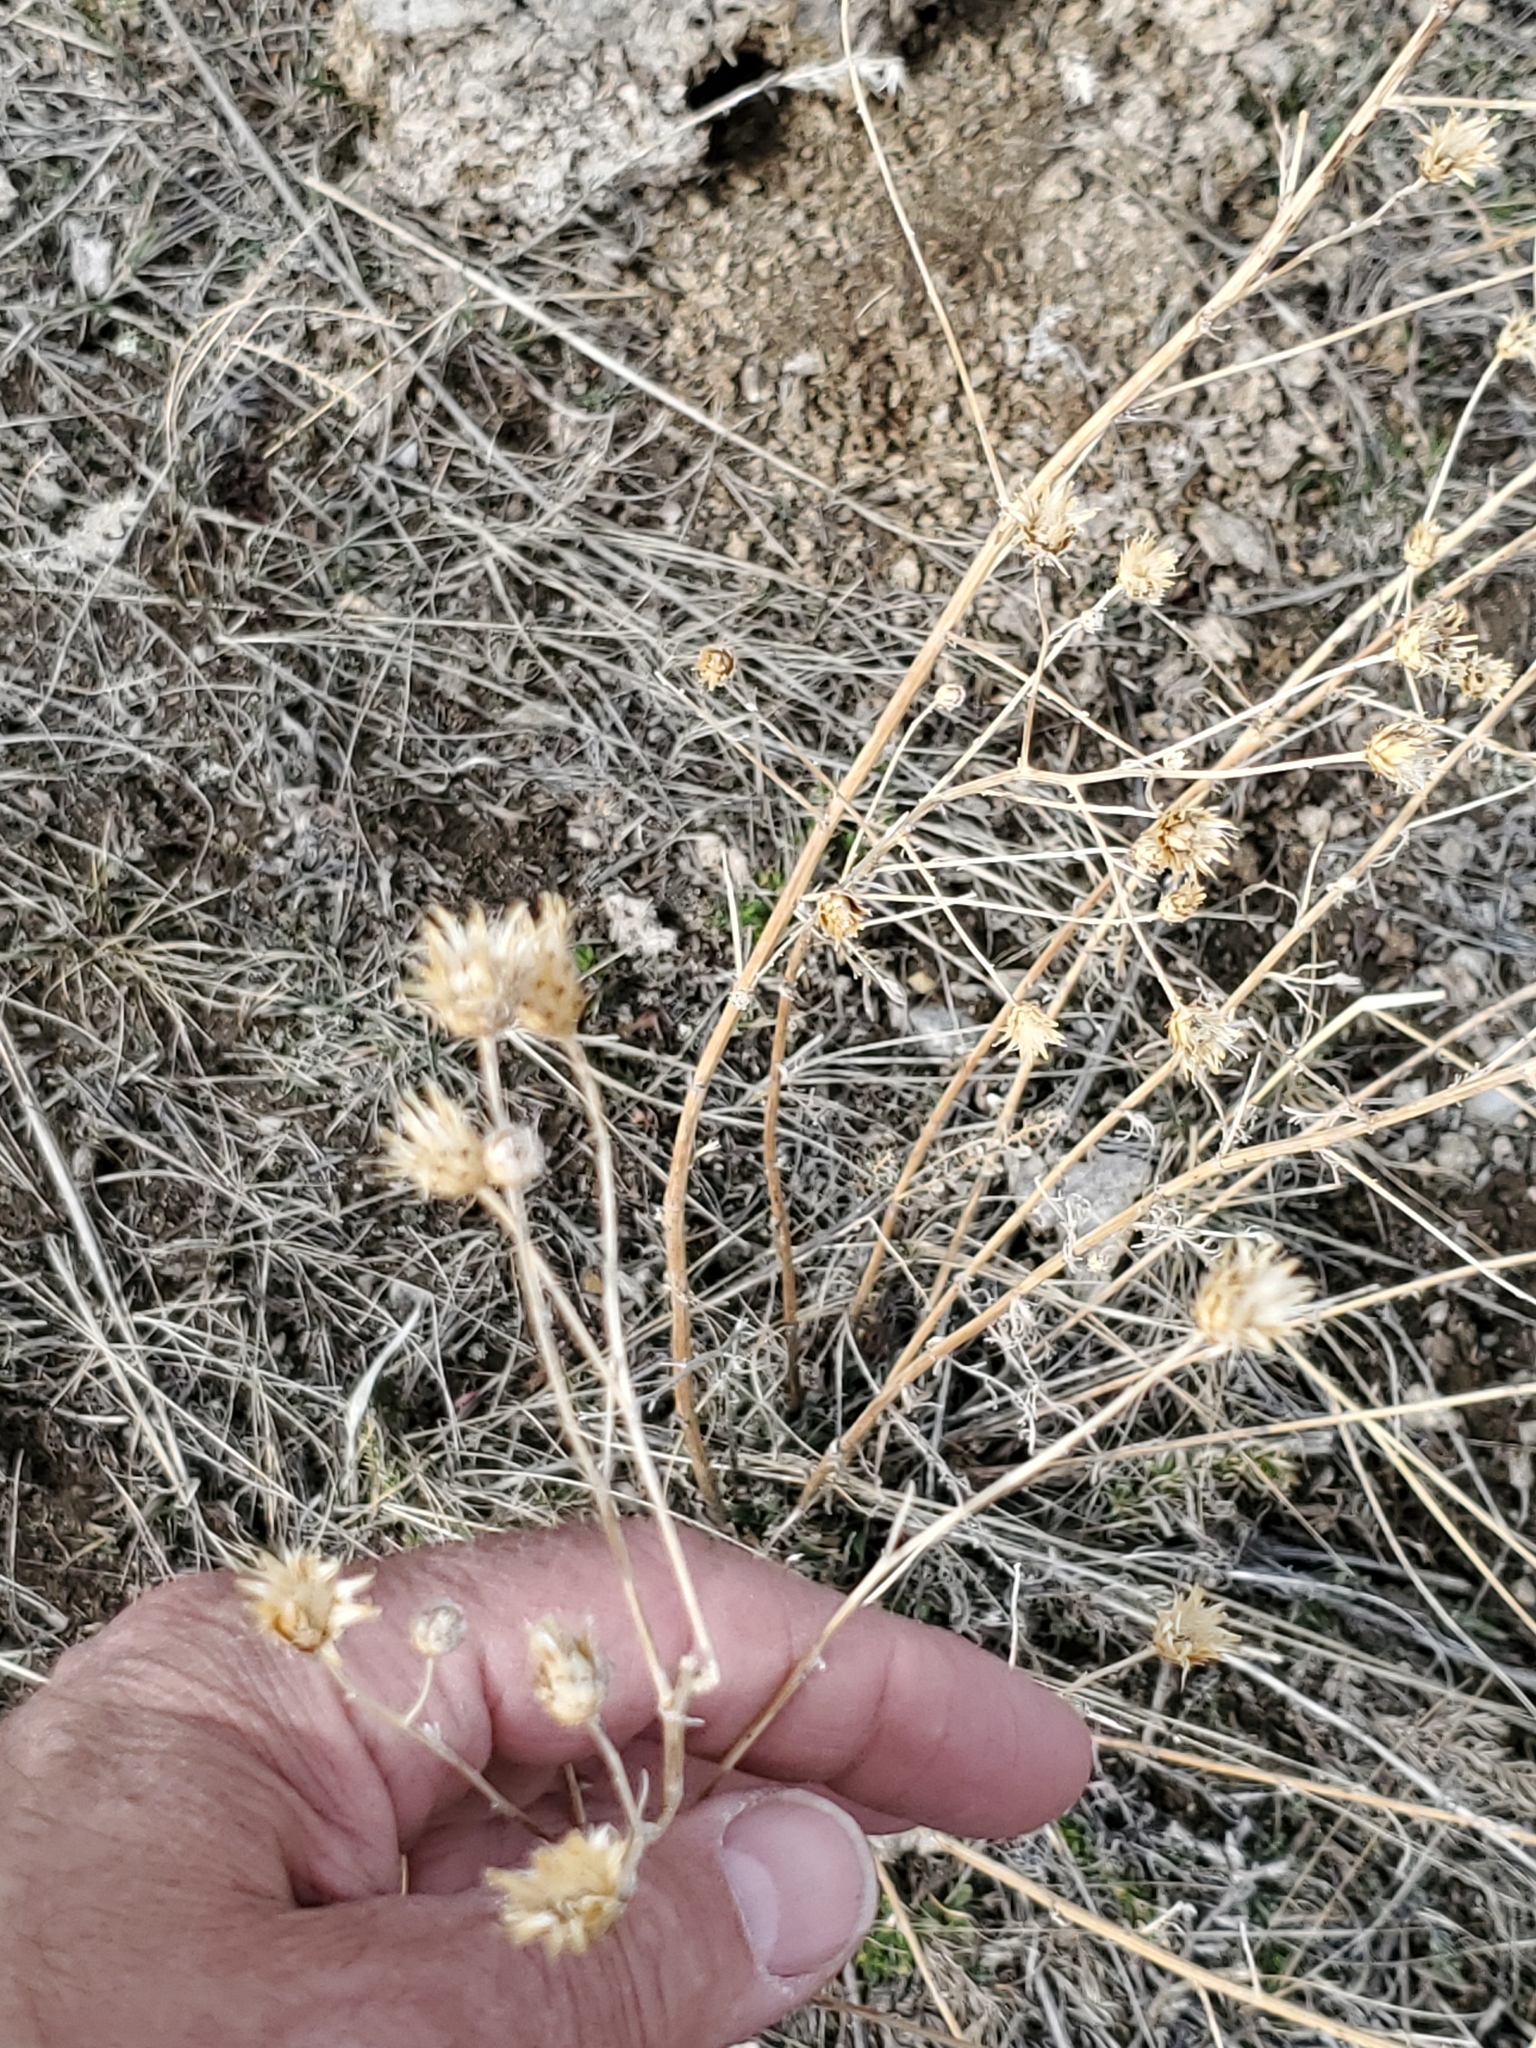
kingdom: Plantae
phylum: Tracheophyta
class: Magnoliopsida
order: Asterales
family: Asteraceae
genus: Centaurea
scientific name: Centaurea stoebe
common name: Spotted knapweed
